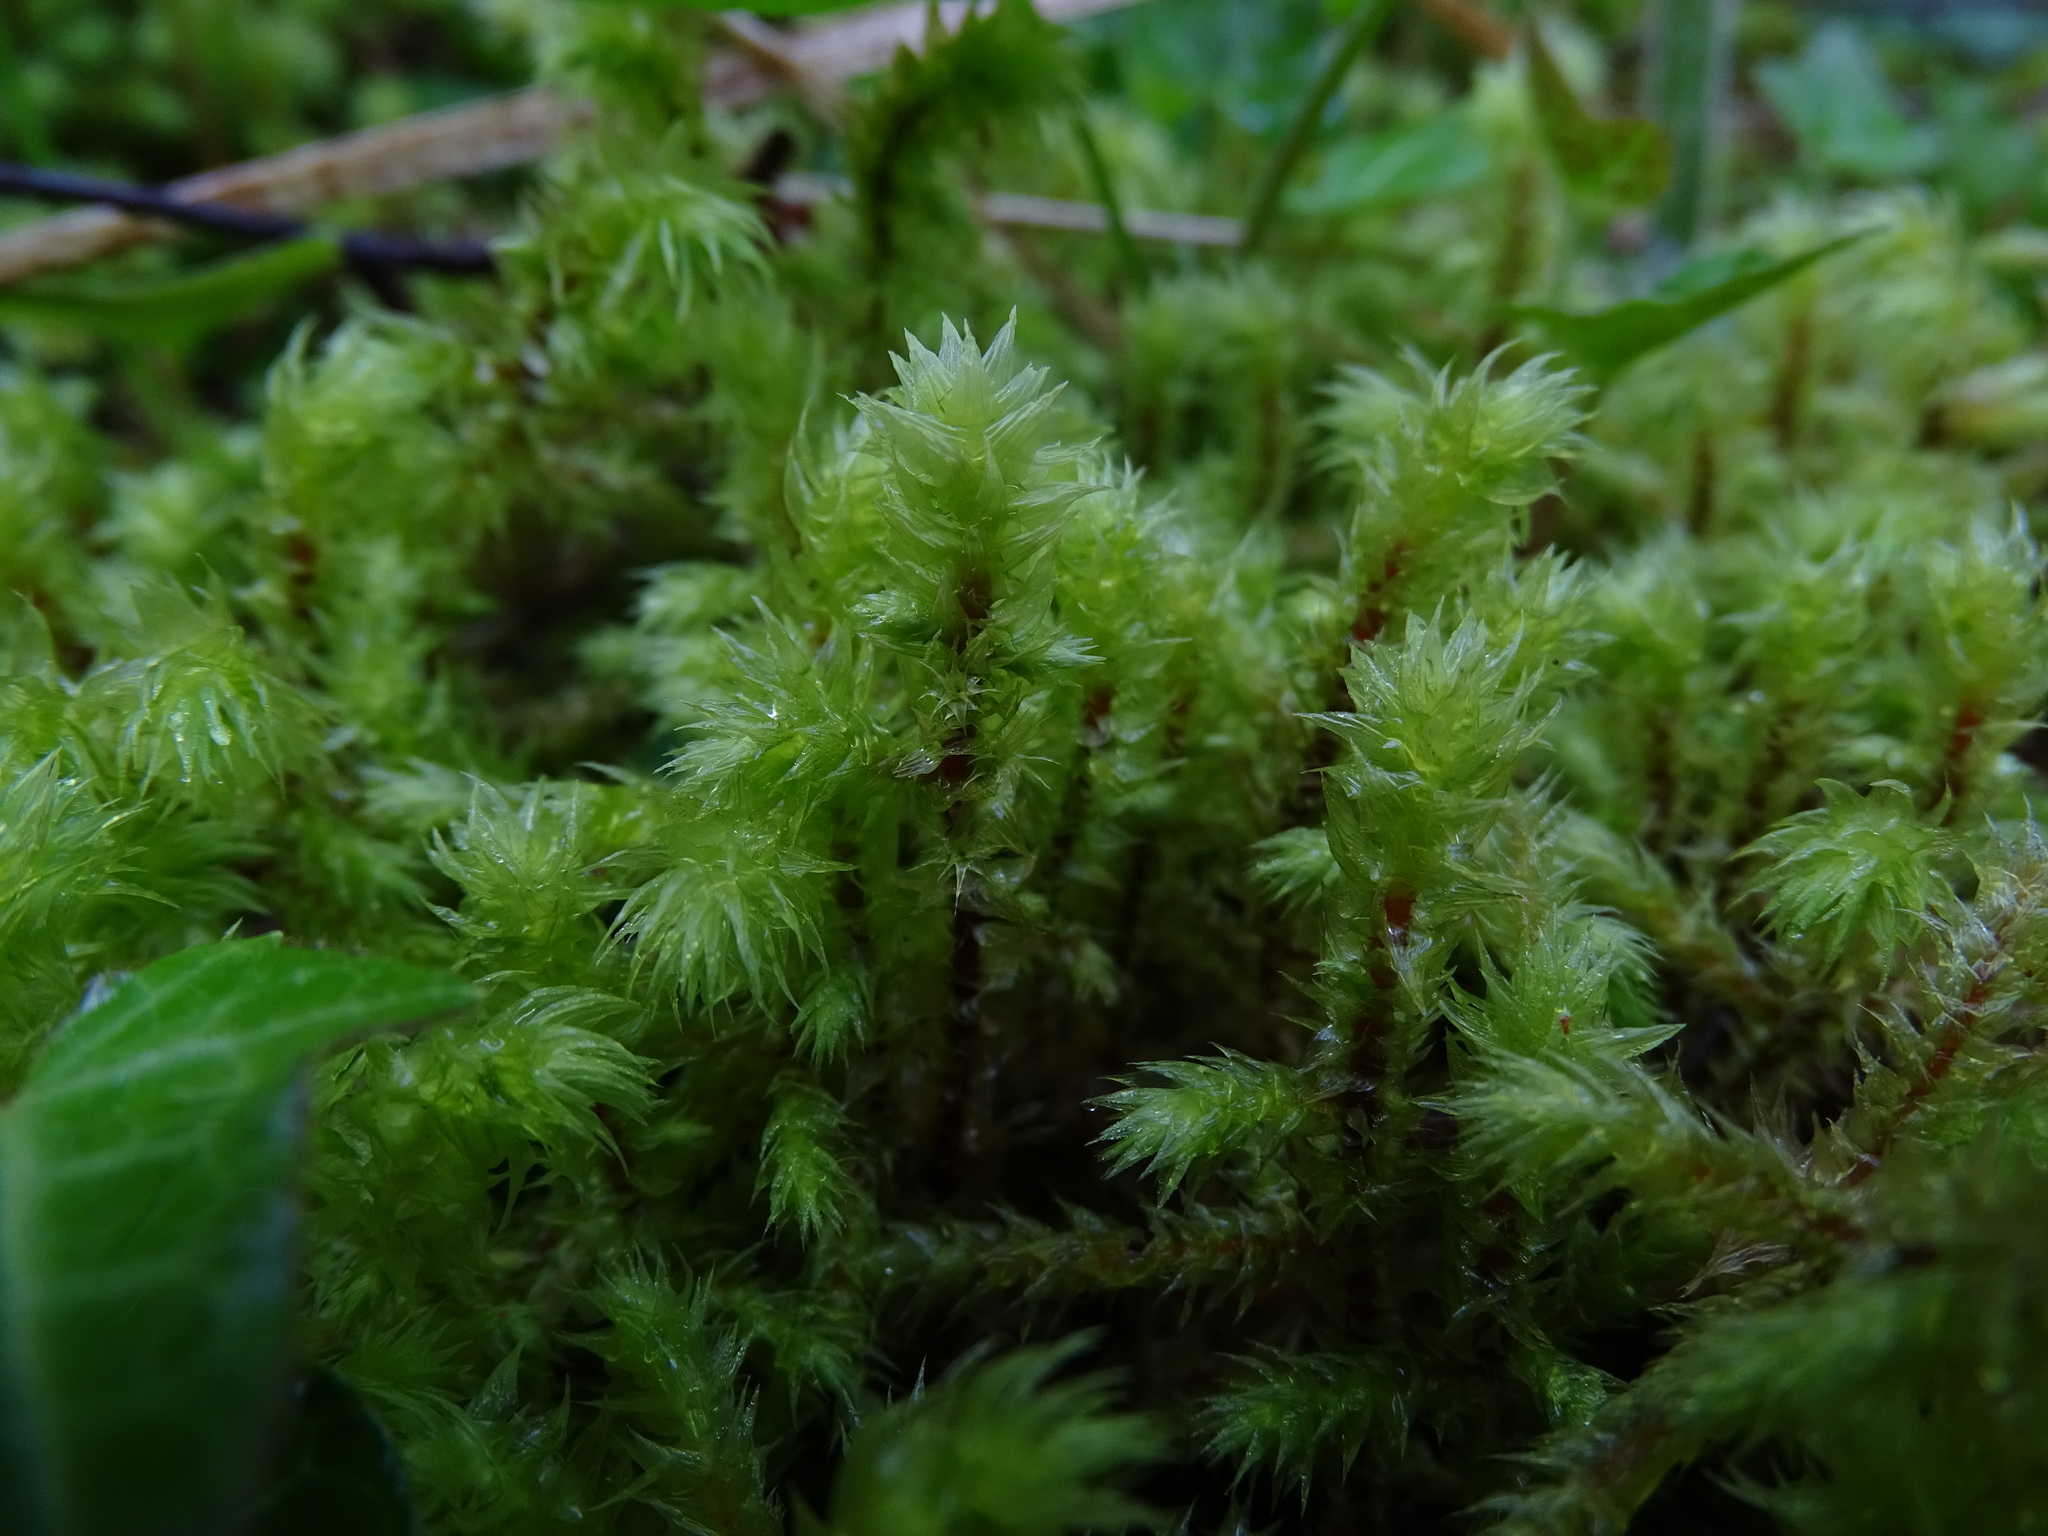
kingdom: Plantae
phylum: Bryophyta
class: Bryopsida
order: Hypnales
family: Hylocomiaceae
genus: Hylocomiadelphus
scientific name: Hylocomiadelphus triquetrus
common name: Rough goose neck moss
